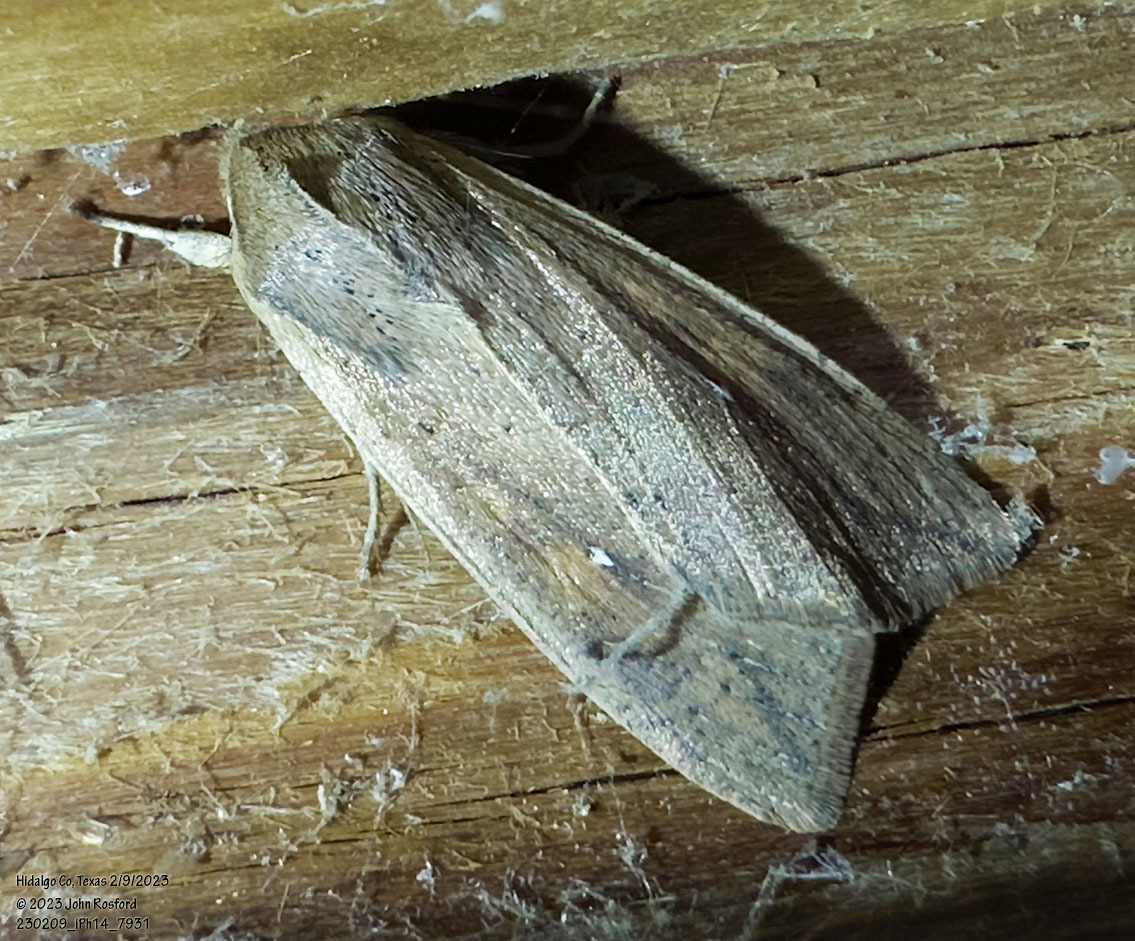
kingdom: Animalia
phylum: Arthropoda
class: Insecta
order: Lepidoptera
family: Noctuidae
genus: Mythimna
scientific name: Mythimna unipuncta
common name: White-speck
